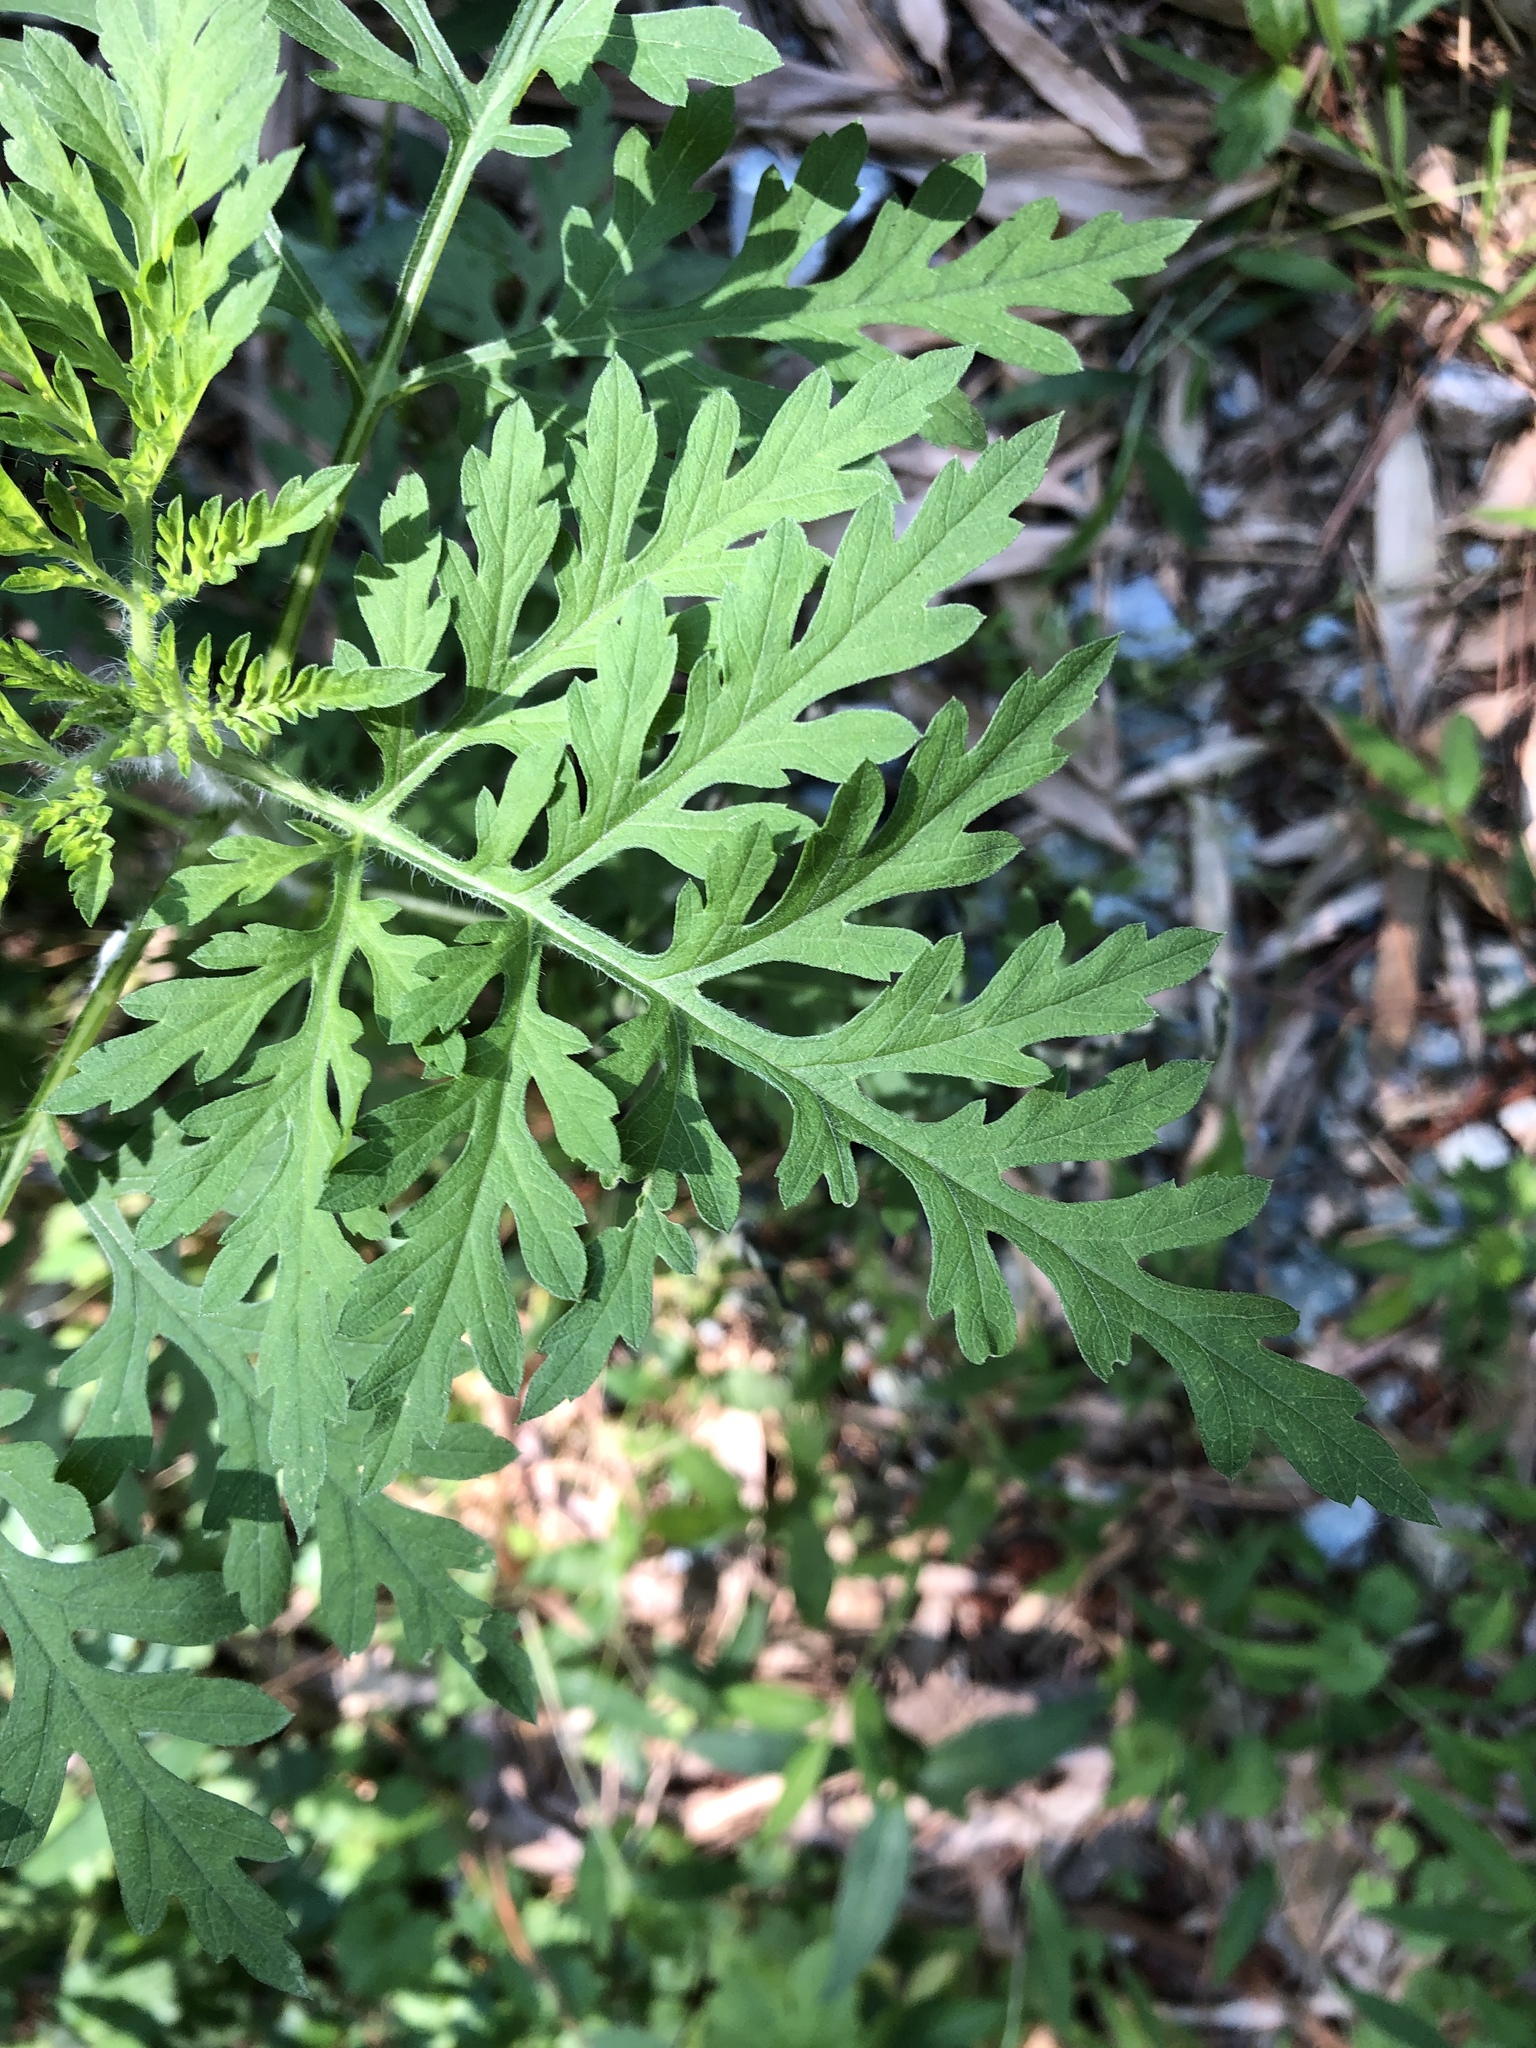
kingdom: Plantae
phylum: Tracheophyta
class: Magnoliopsida
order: Asterales
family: Asteraceae
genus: Ambrosia
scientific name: Ambrosia artemisiifolia
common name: Annual ragweed
